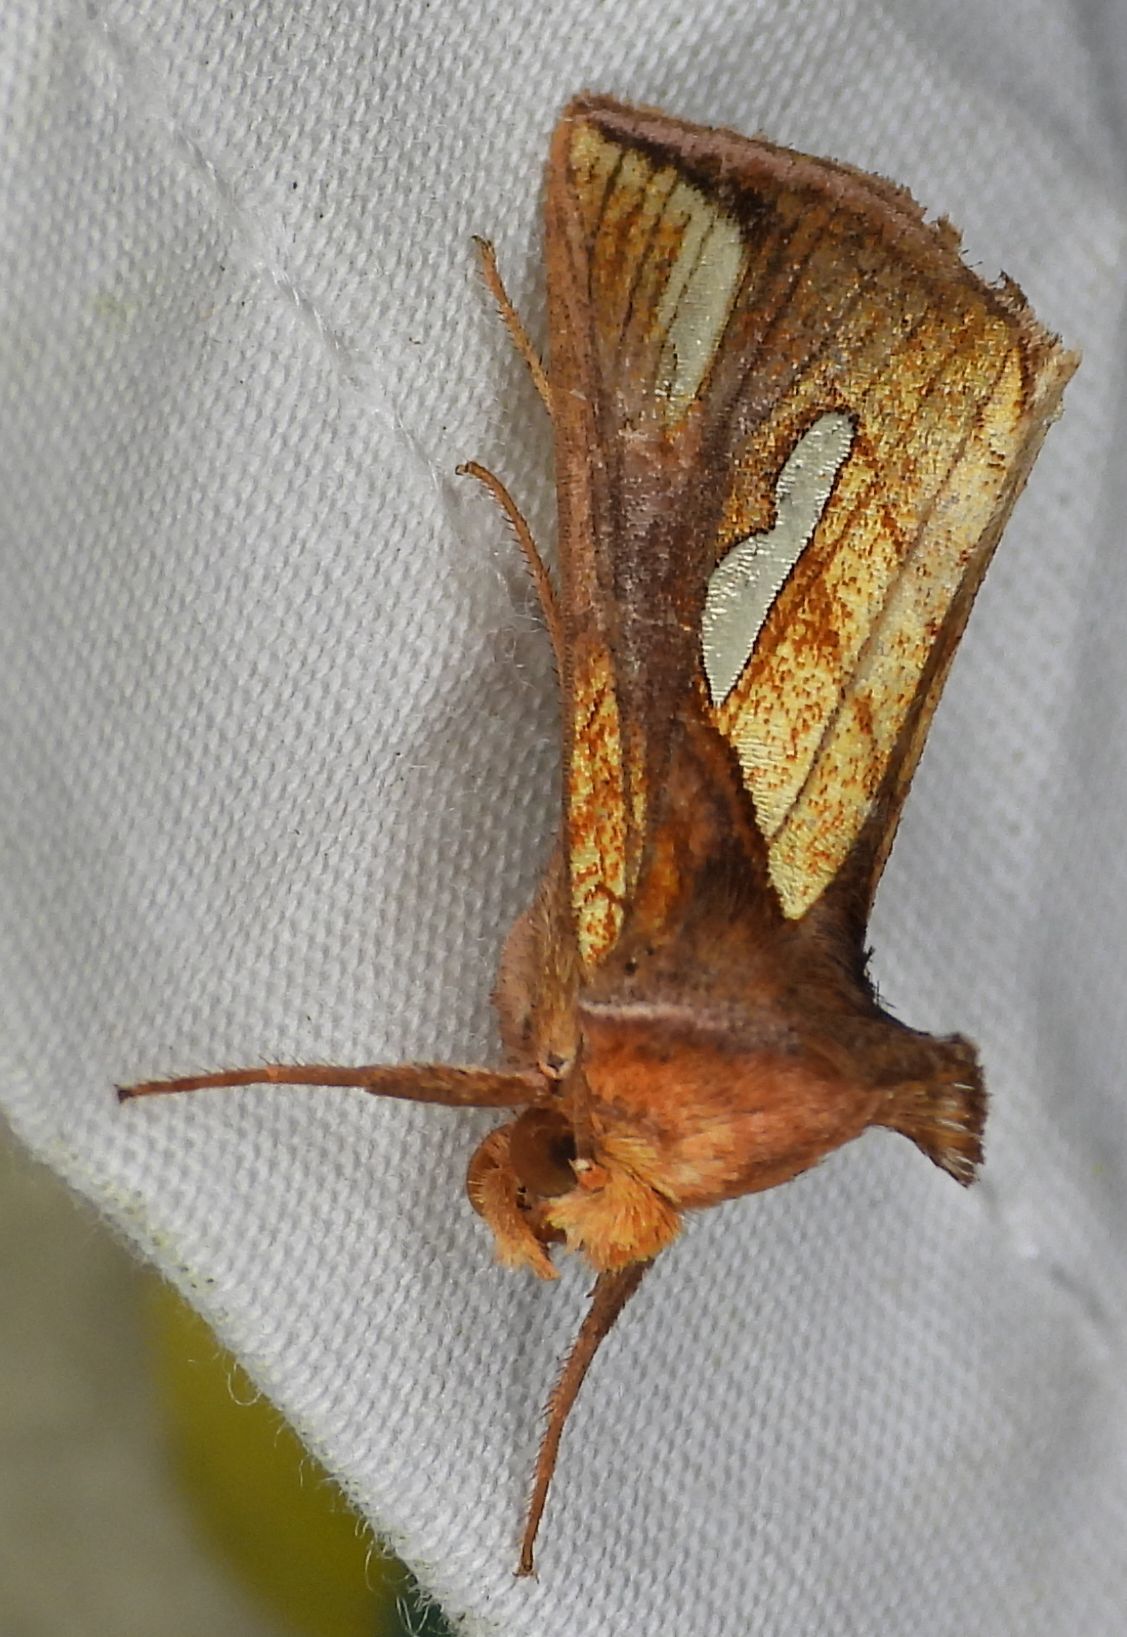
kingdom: Animalia
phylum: Arthropoda
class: Insecta
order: Lepidoptera
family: Noctuidae
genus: Plusia
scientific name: Plusia contexta
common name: Connected looper moth
